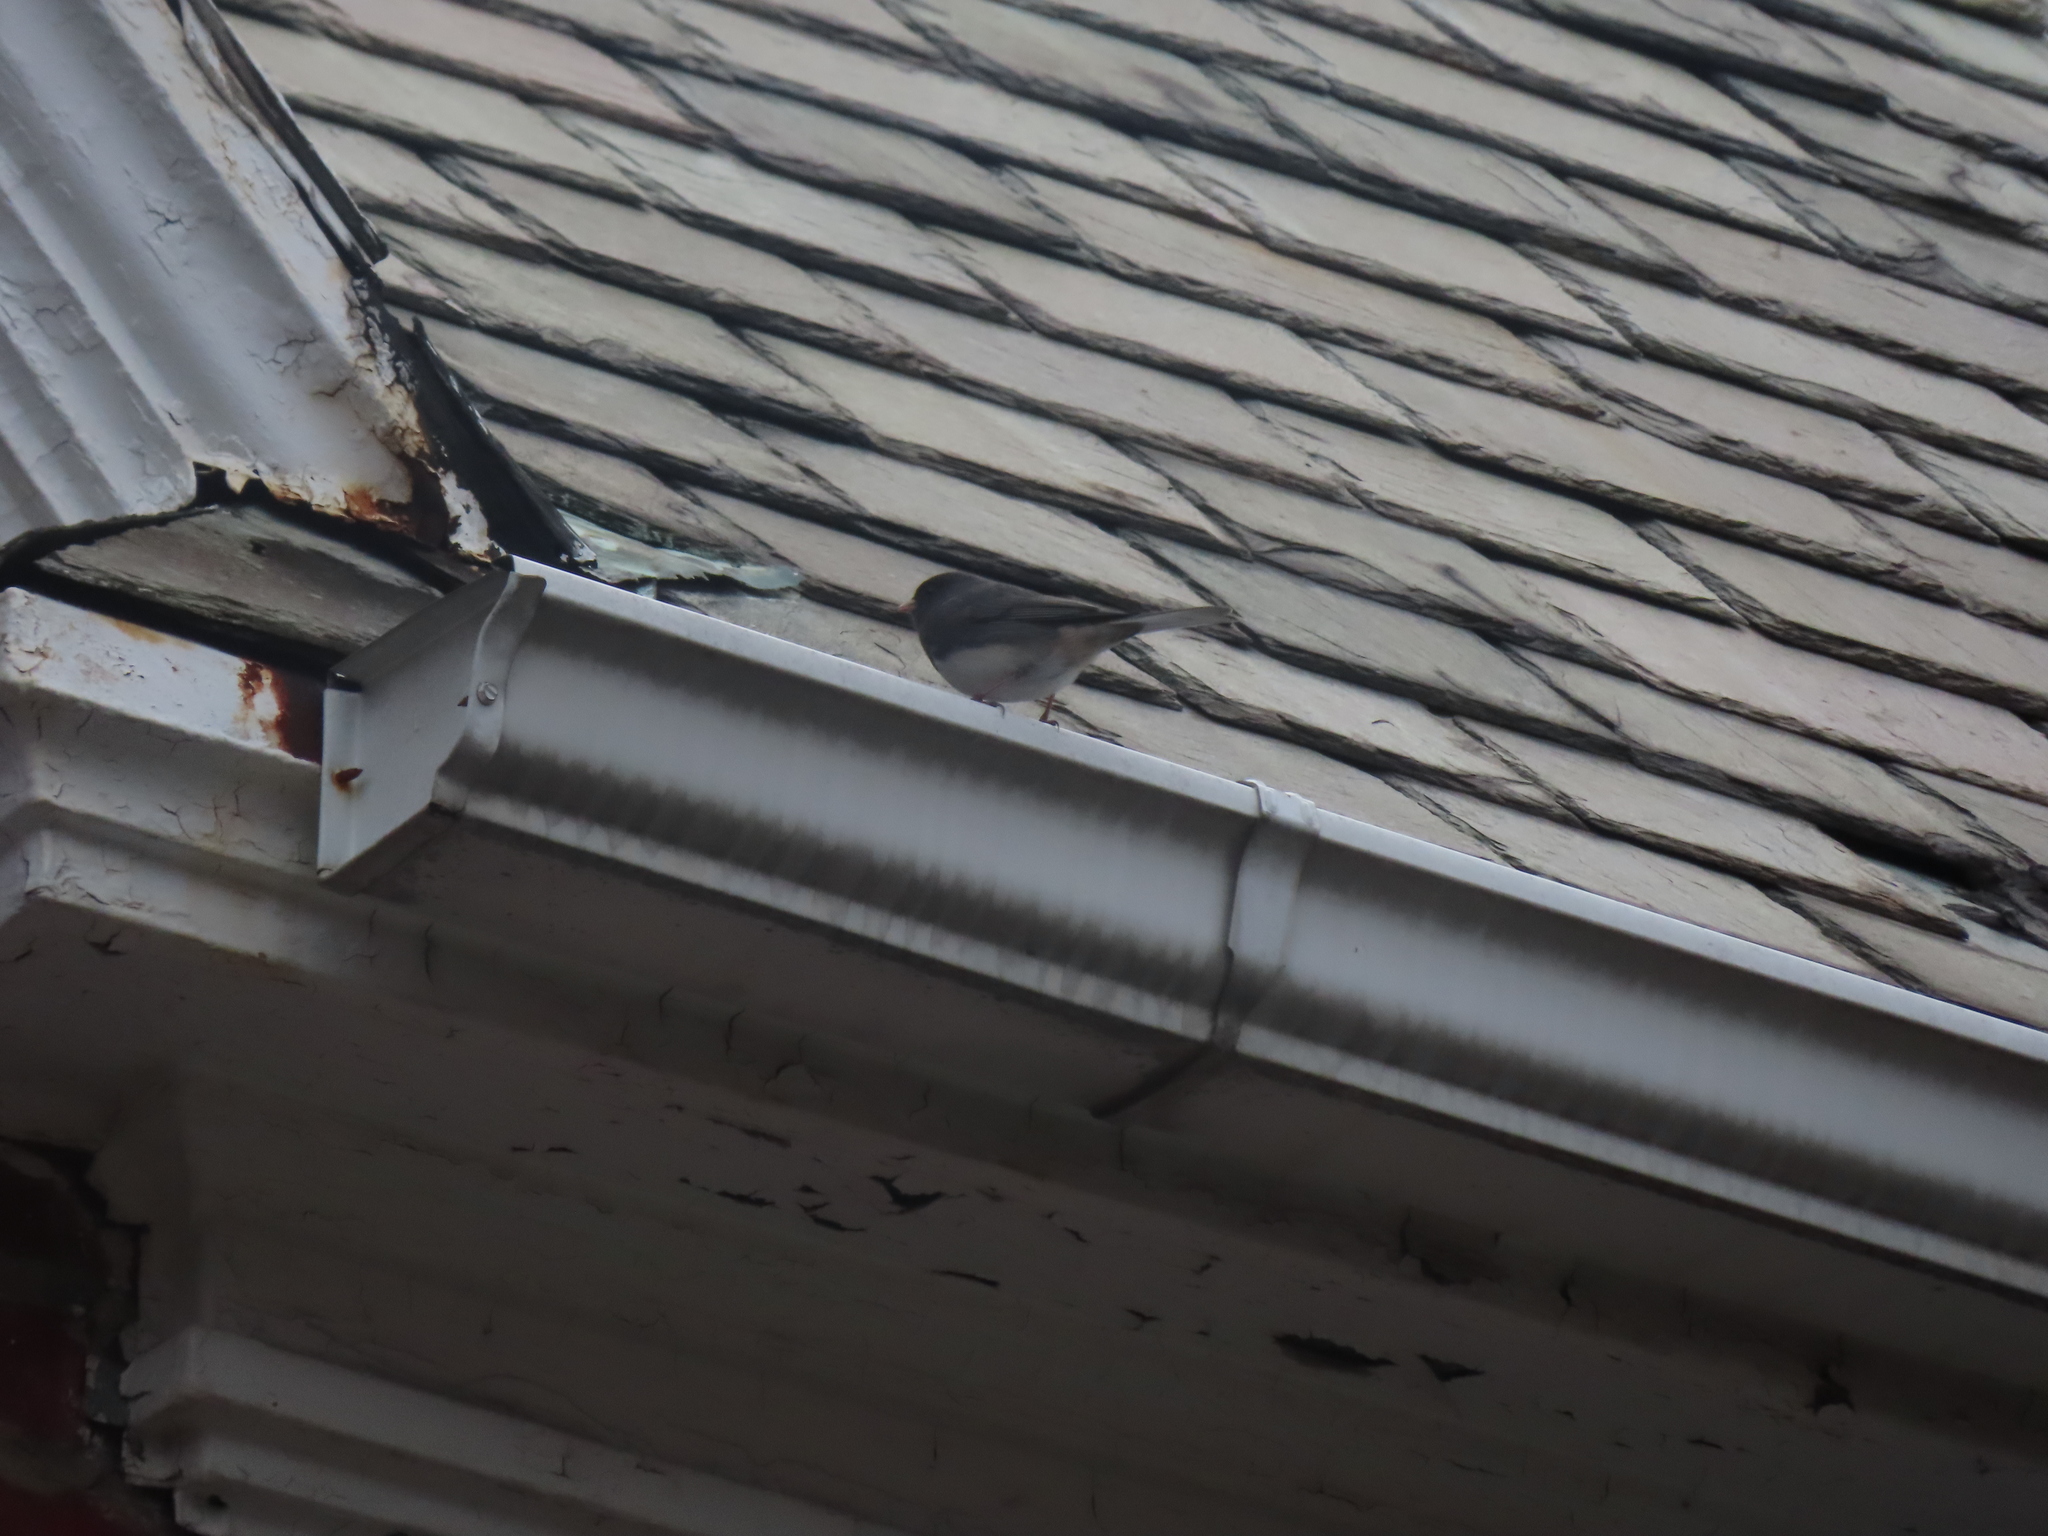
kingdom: Animalia
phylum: Chordata
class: Aves
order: Passeriformes
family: Passerellidae
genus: Junco
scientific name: Junco hyemalis
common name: Dark-eyed junco
